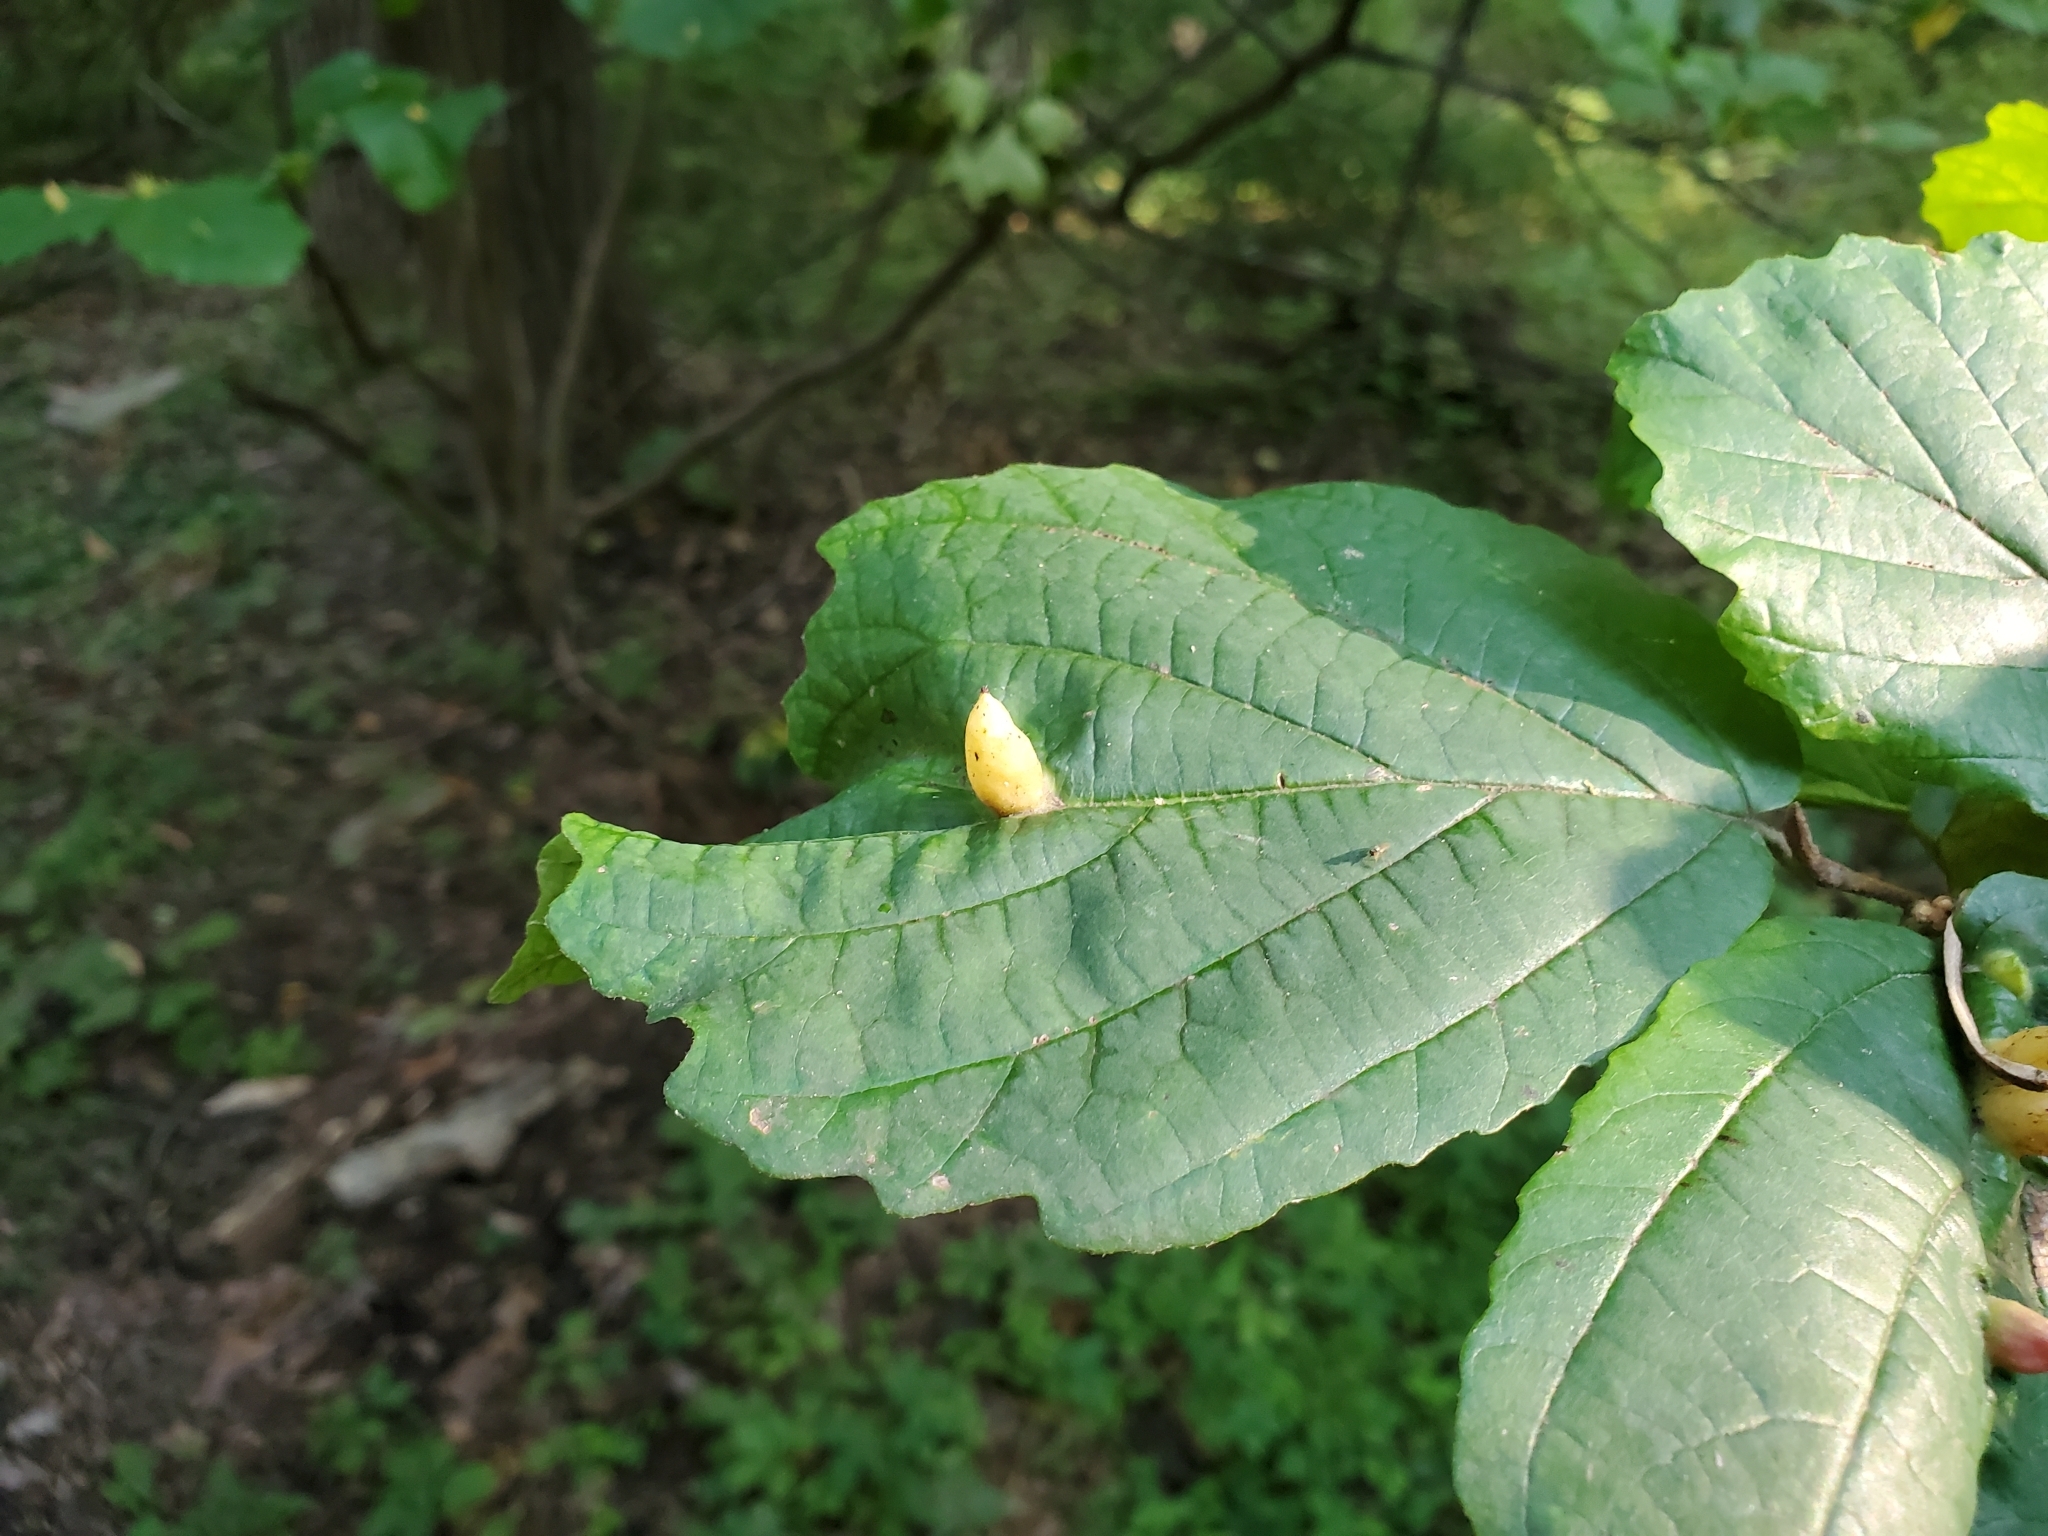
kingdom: Animalia
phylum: Arthropoda
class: Insecta
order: Hemiptera
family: Aphididae
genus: Hormaphis
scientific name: Hormaphis hamamelidis
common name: Witch-hazel cone gall aphid
